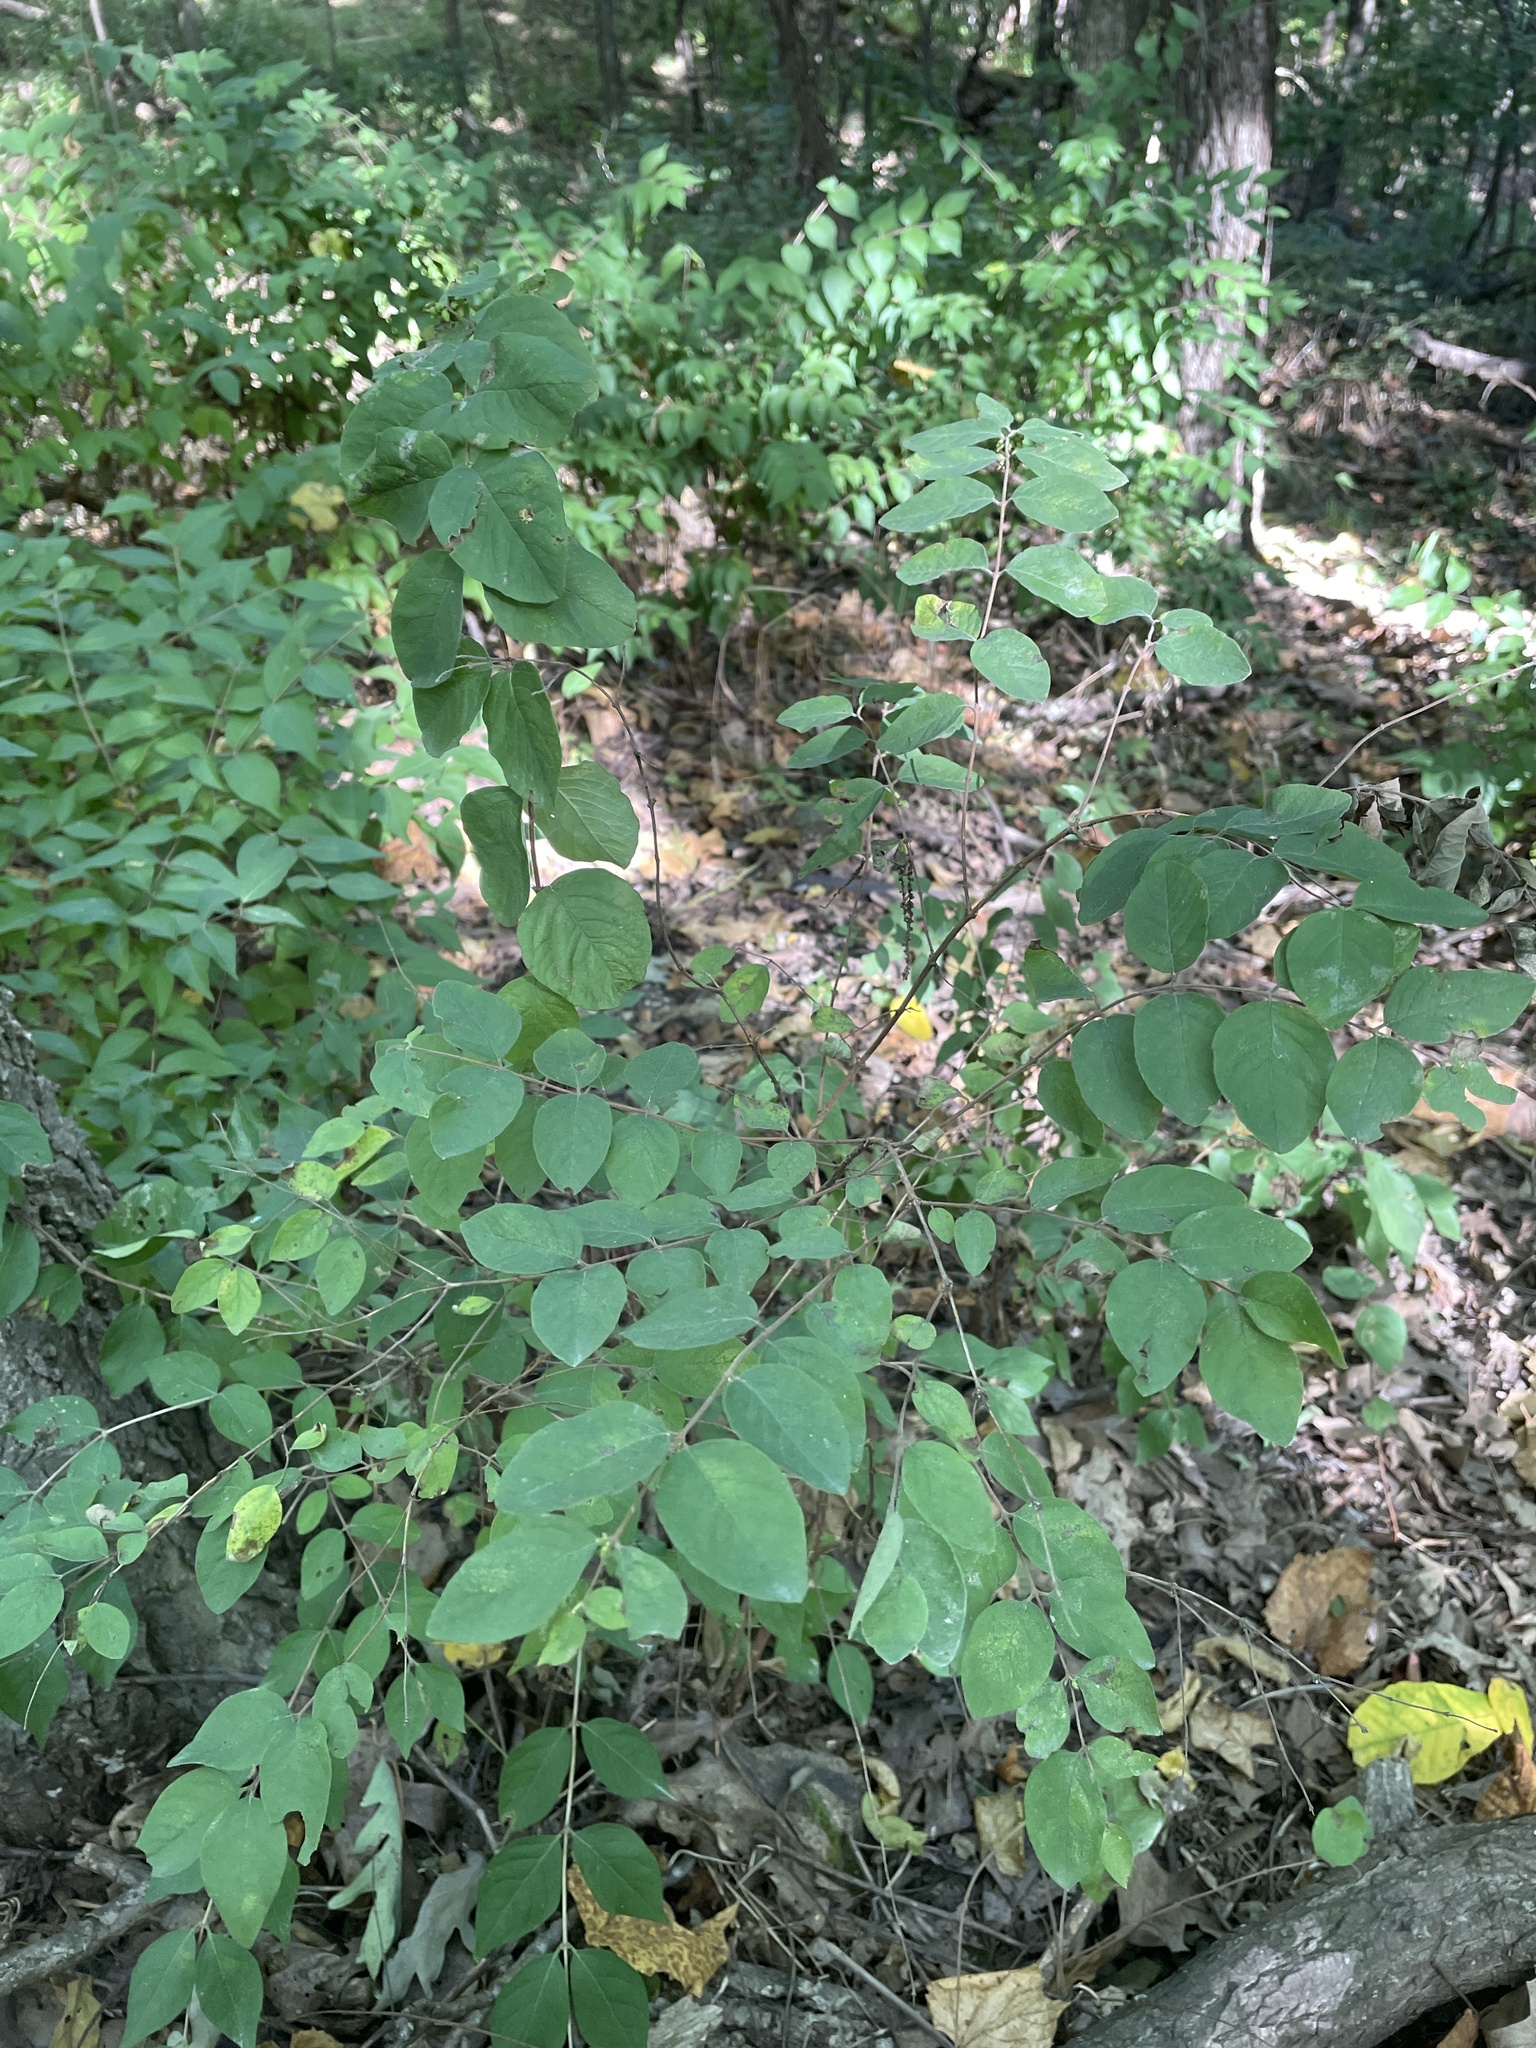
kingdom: Plantae
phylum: Tracheophyta
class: Magnoliopsida
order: Dipsacales
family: Caprifoliaceae
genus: Symphoricarpos
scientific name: Symphoricarpos orbiculatus
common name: Coralberry
